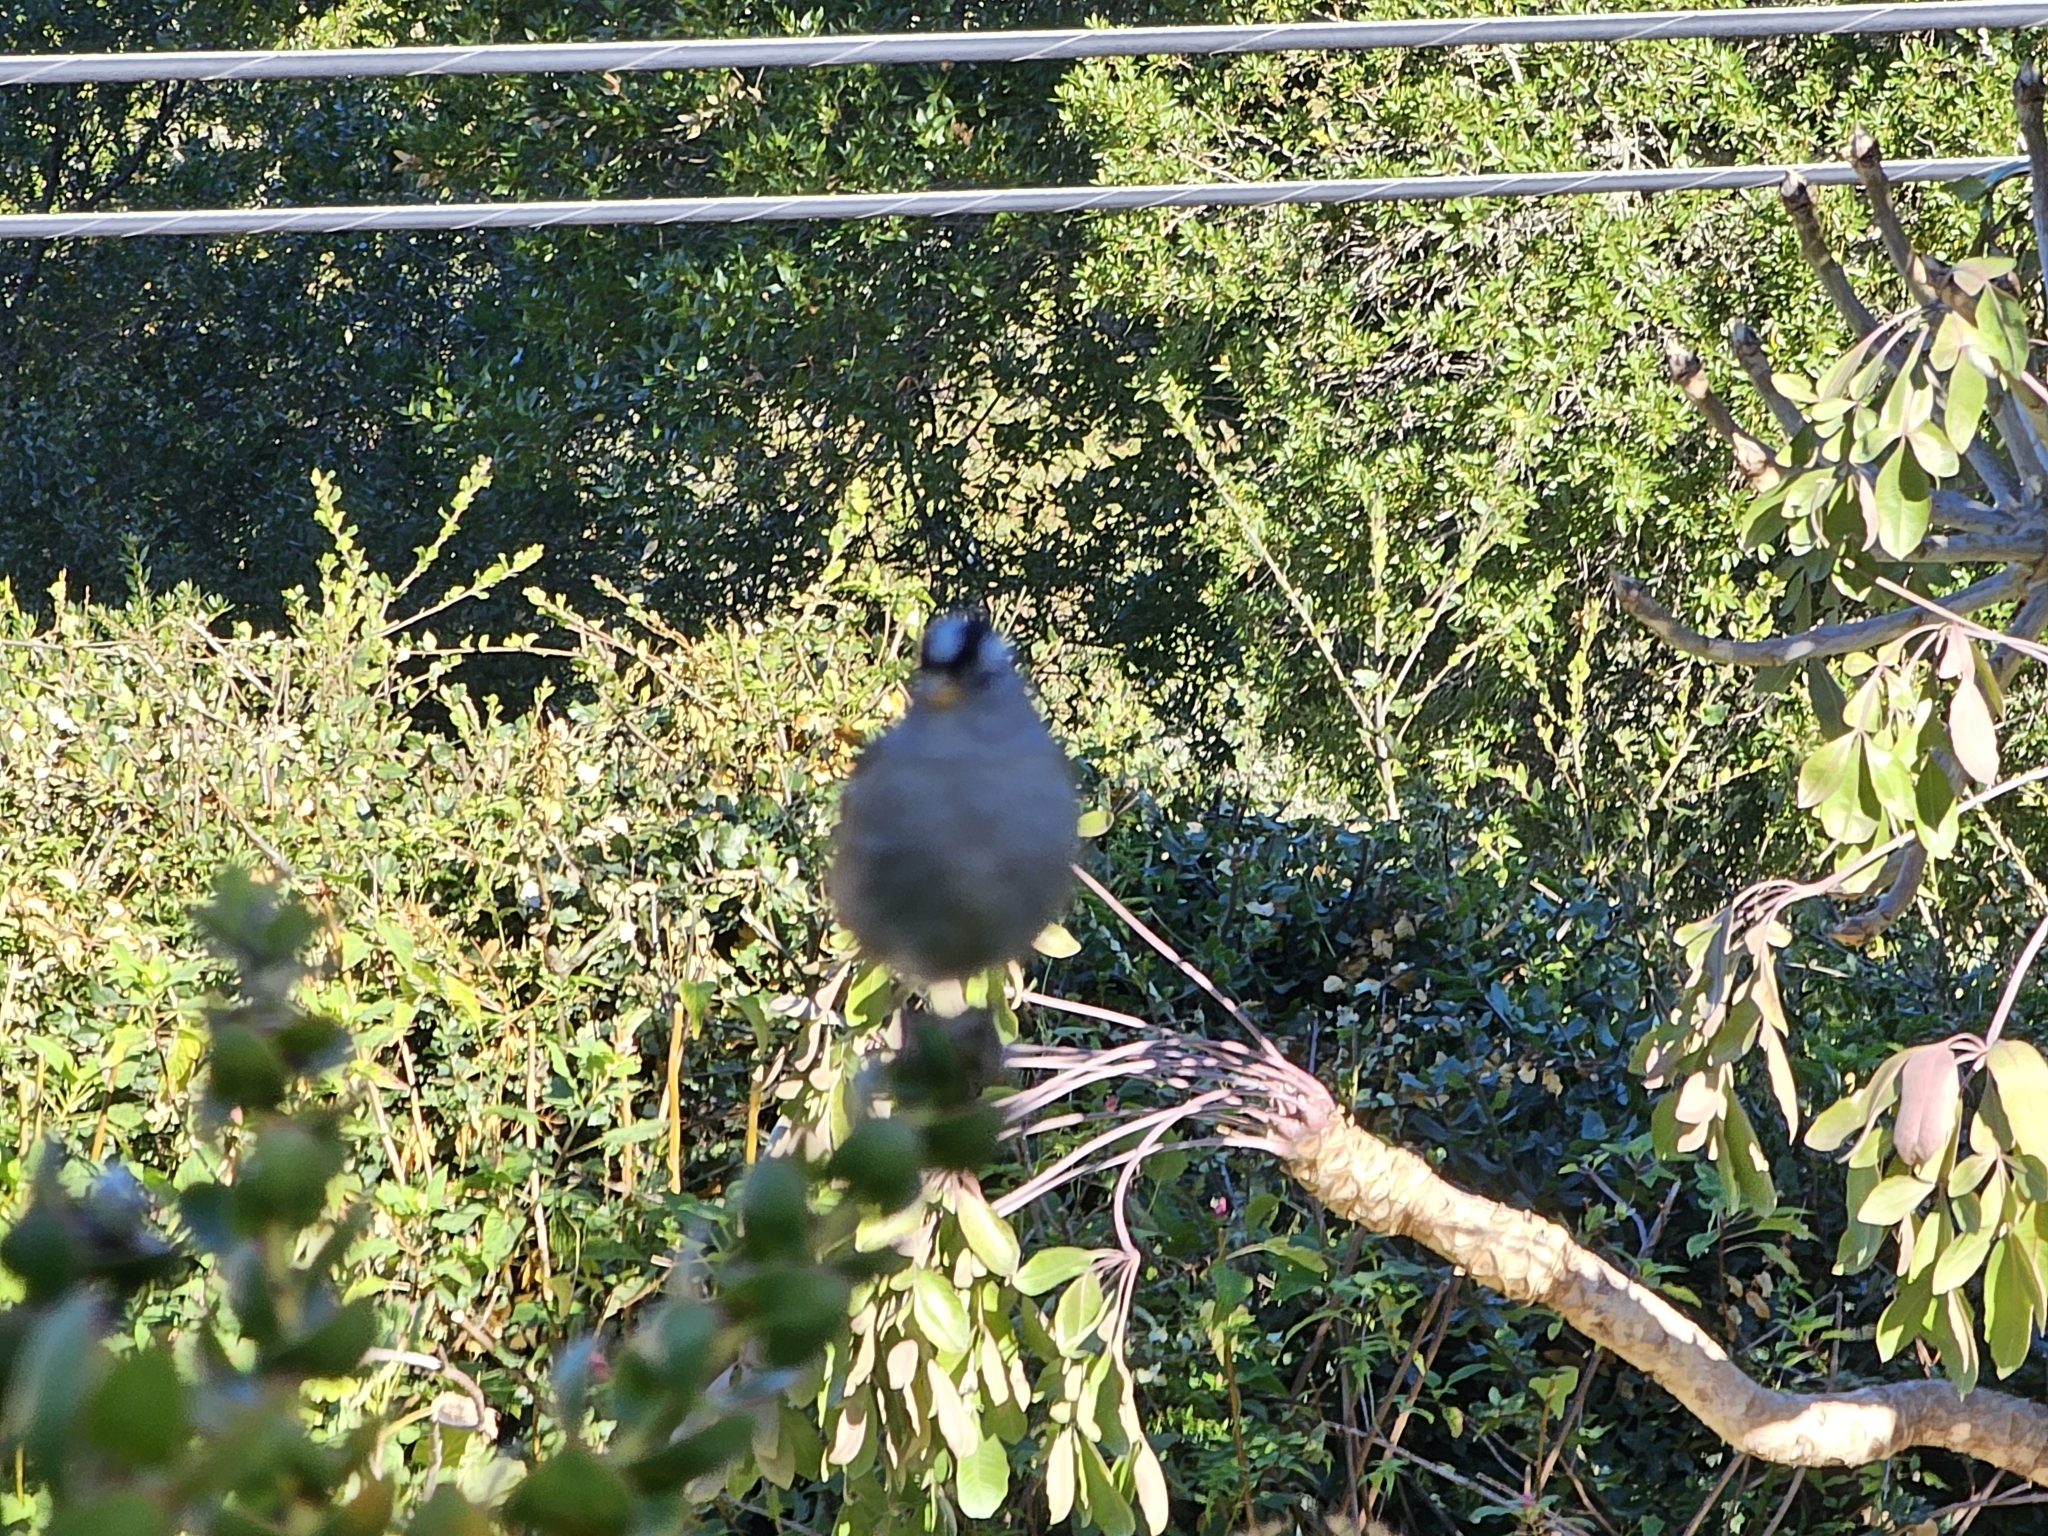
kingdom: Animalia
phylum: Chordata
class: Aves
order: Passeriformes
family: Passerellidae
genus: Zonotrichia
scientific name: Zonotrichia leucophrys
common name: White-crowned sparrow
